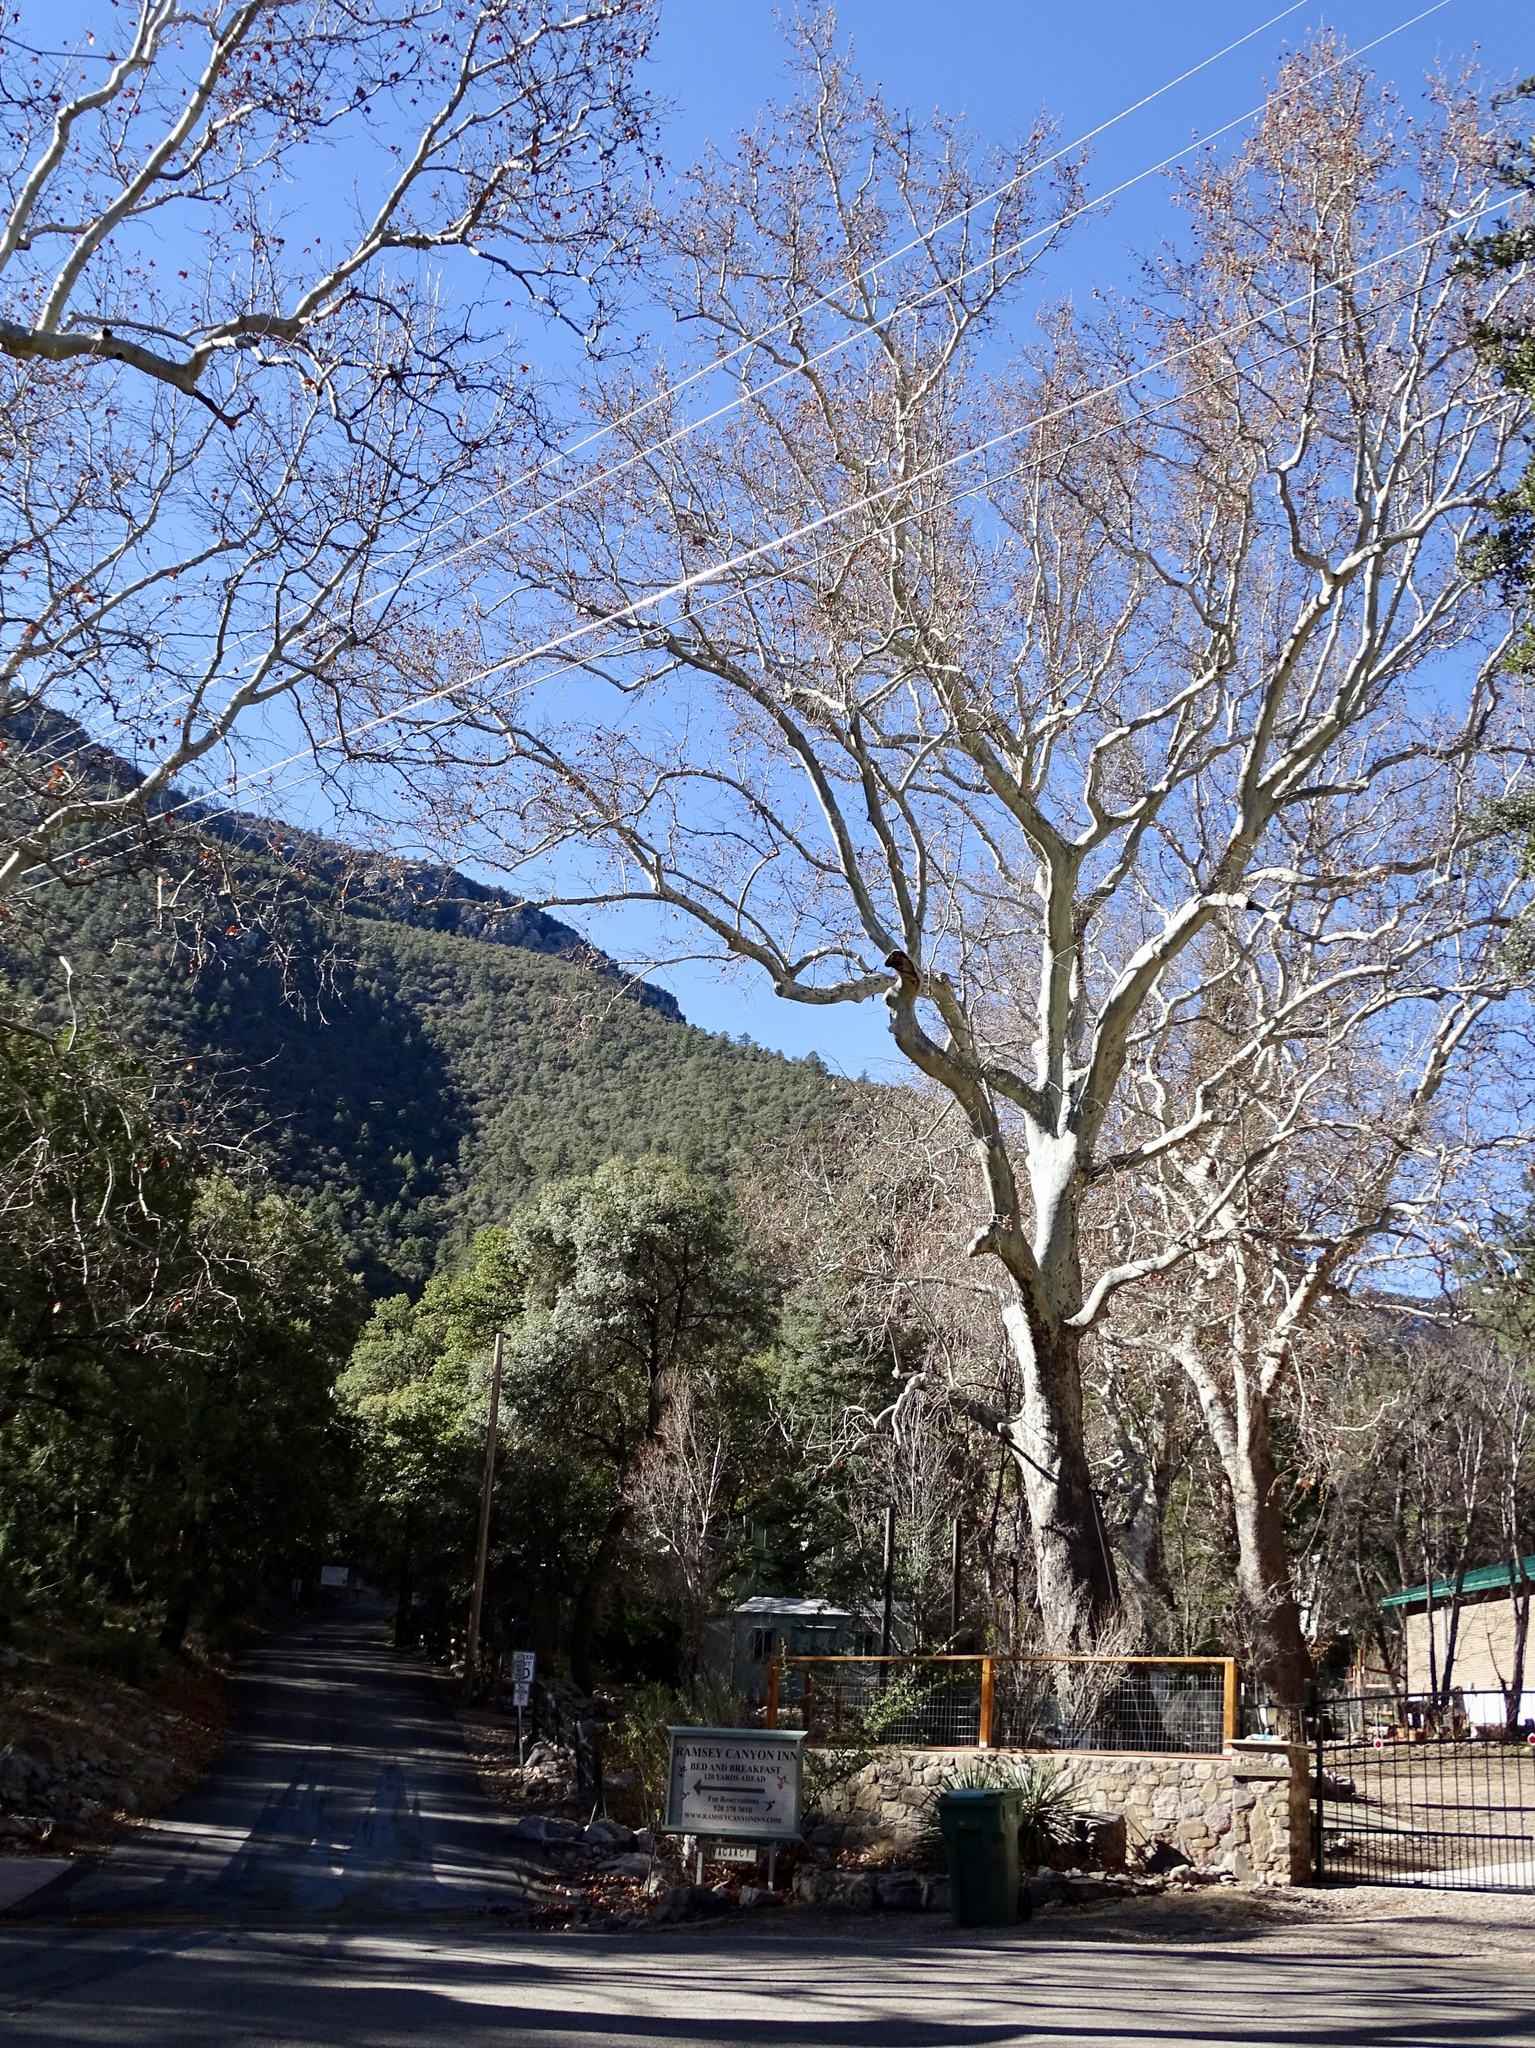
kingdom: Plantae
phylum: Tracheophyta
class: Magnoliopsida
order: Proteales
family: Platanaceae
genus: Platanus
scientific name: Platanus wrightii
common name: Arizona sycamore
